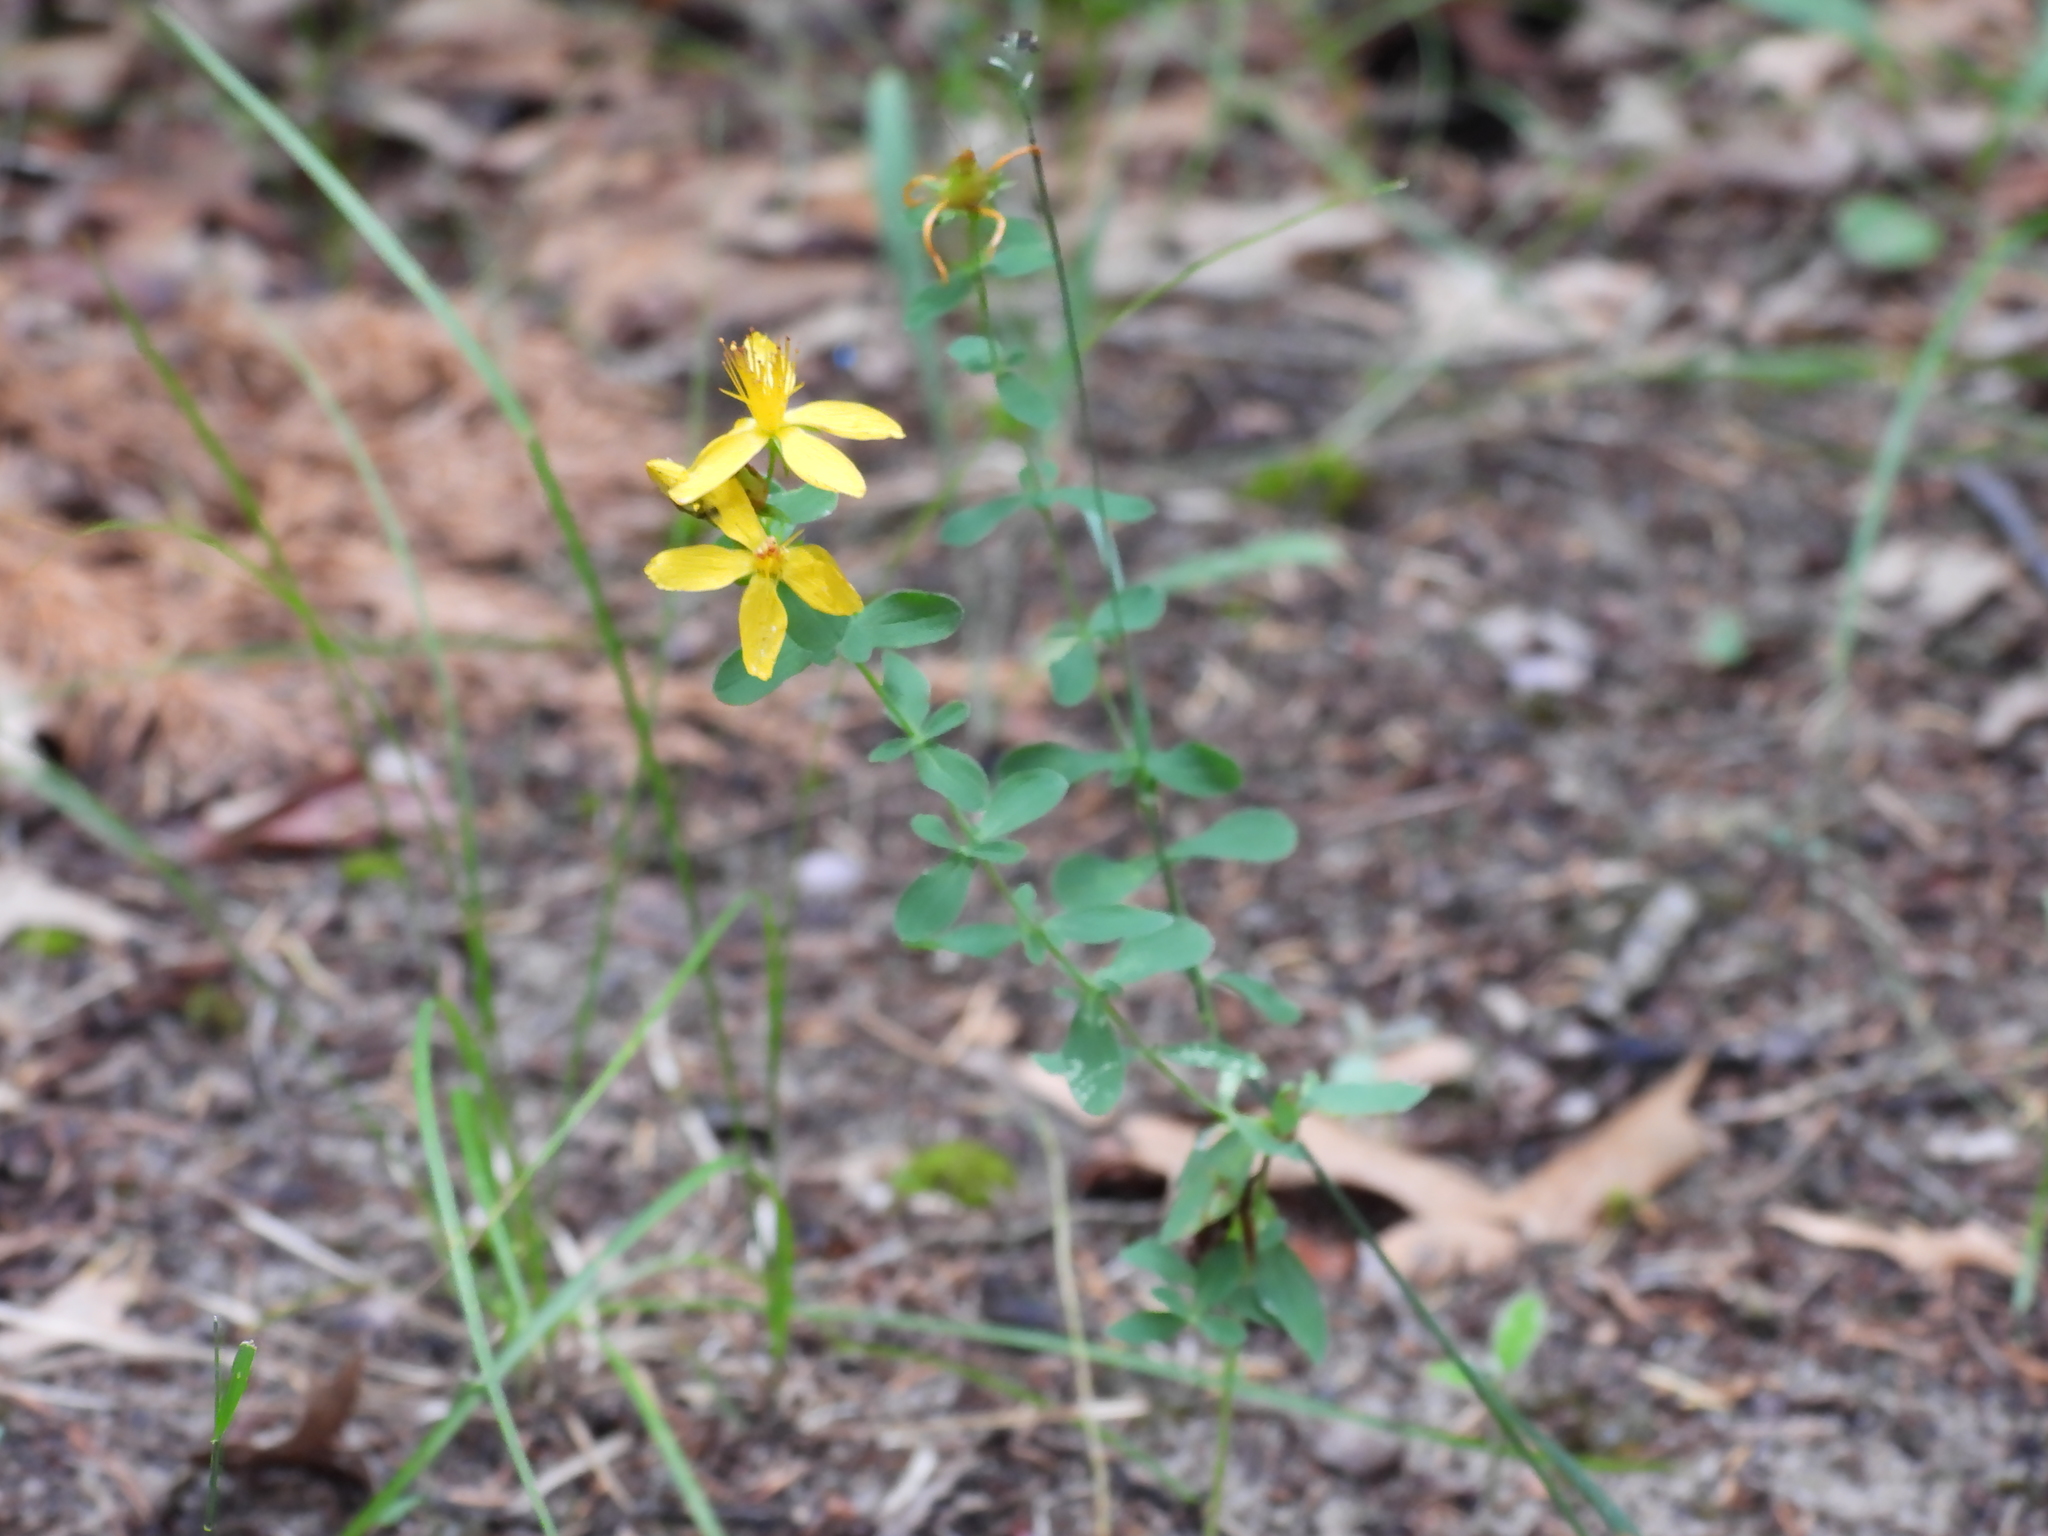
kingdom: Plantae
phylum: Tracheophyta
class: Magnoliopsida
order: Malpighiales
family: Hypericaceae
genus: Hypericum
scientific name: Hypericum perforatum
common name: Common st. johnswort
